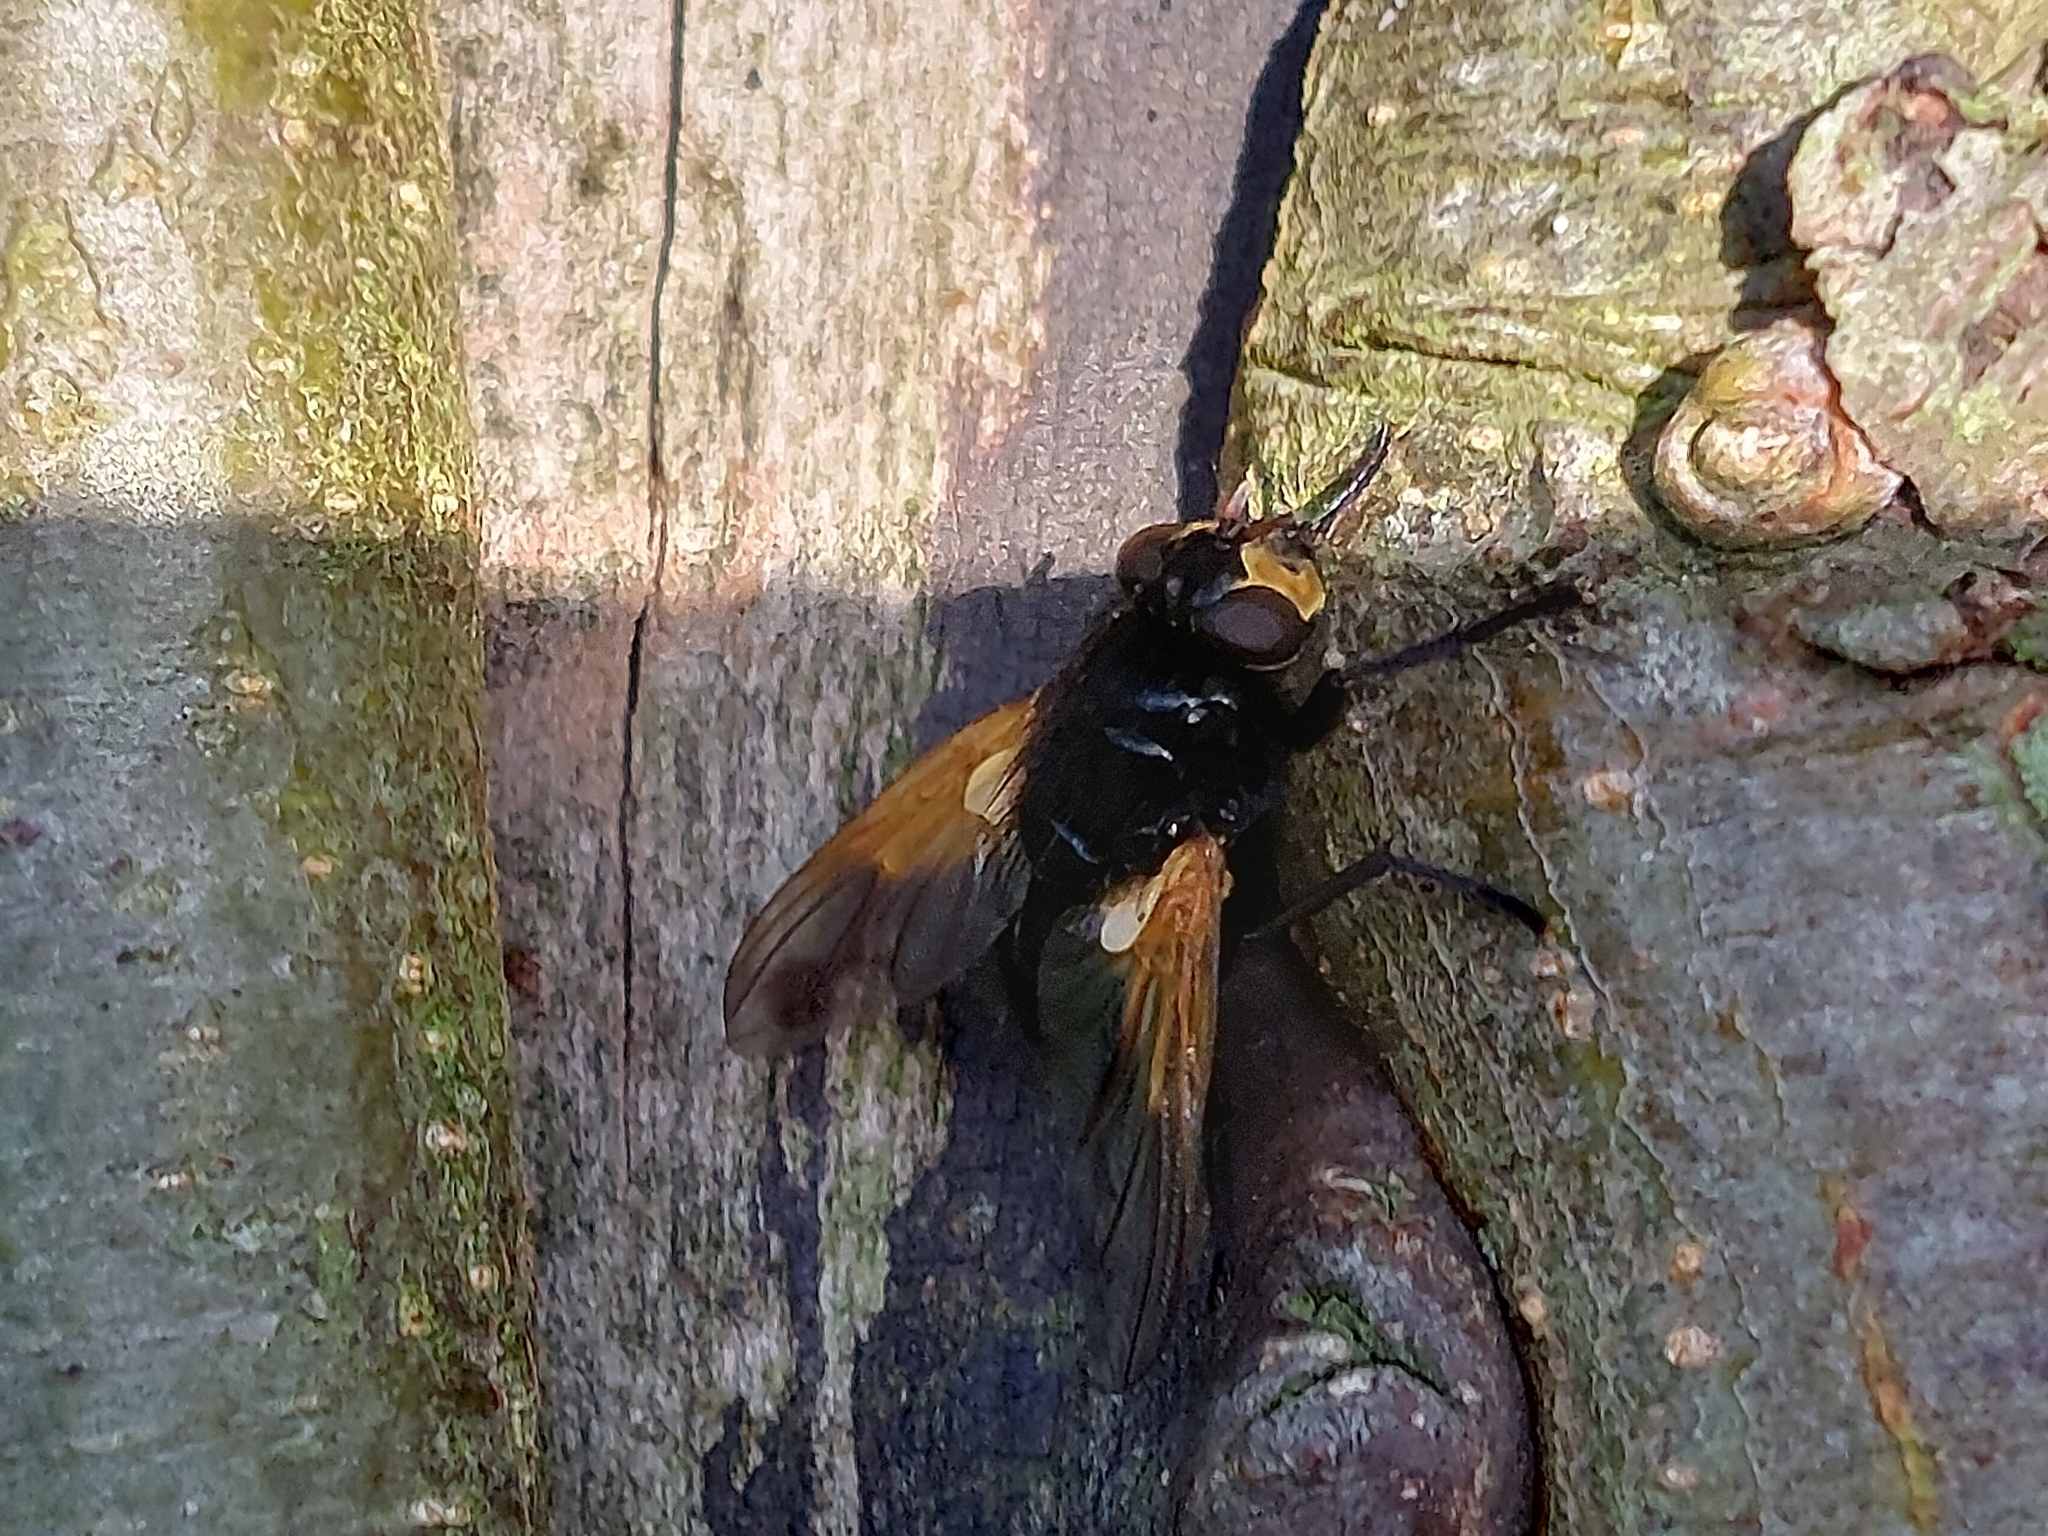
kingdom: Animalia
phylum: Arthropoda
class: Insecta
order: Diptera
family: Muscidae
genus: Mesembrina
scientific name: Mesembrina meridiana
